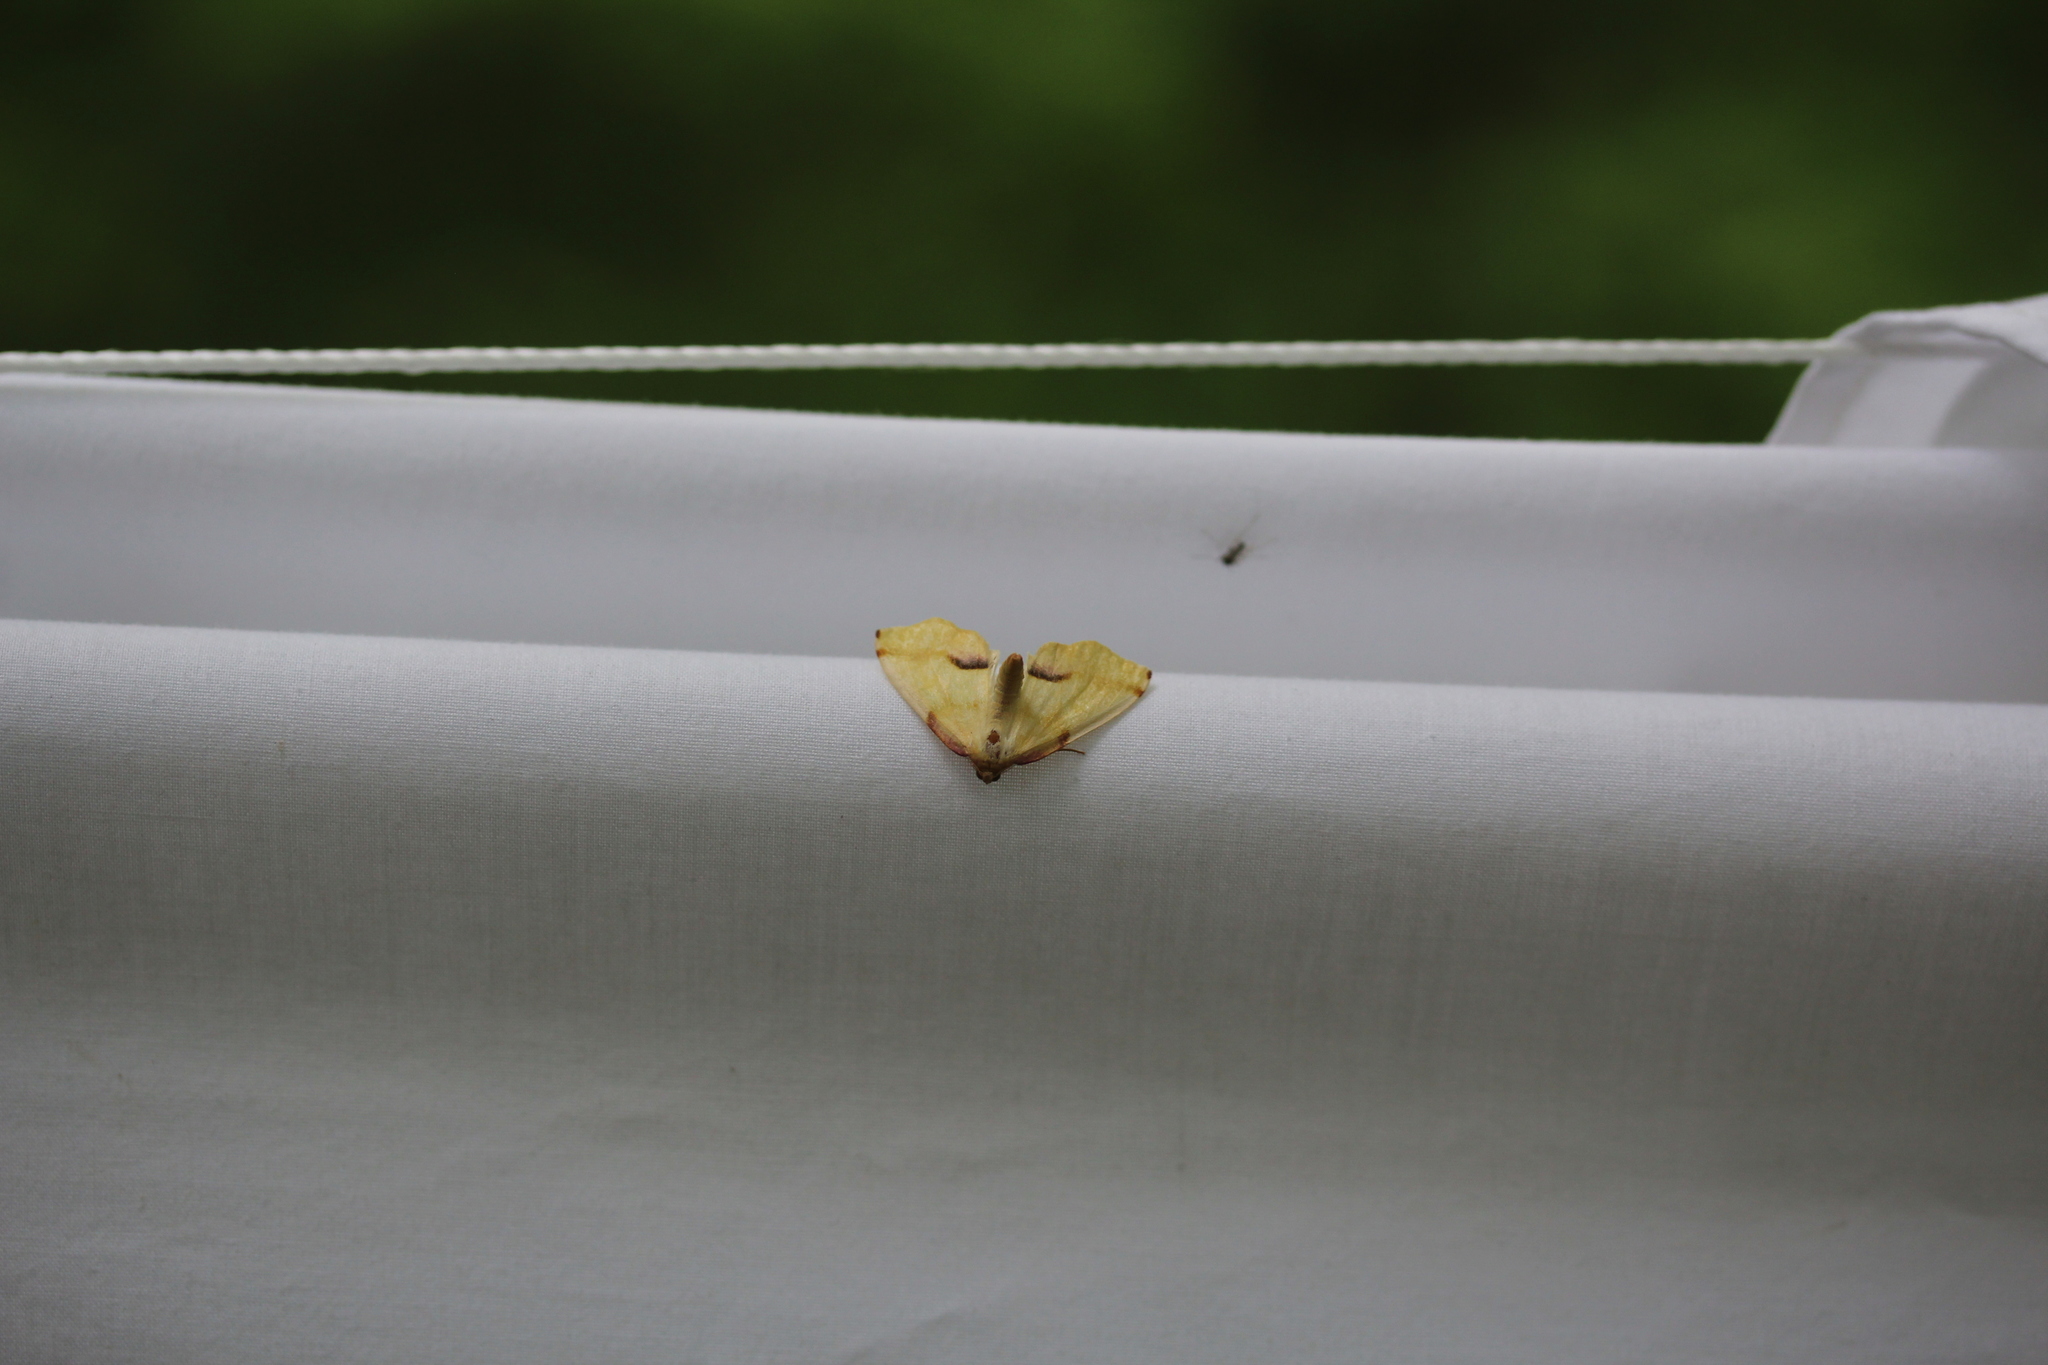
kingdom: Animalia
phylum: Arthropoda
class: Insecta
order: Lepidoptera
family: Geometridae
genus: Plagodis
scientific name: Plagodis serinaria
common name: Lemon plagodis
